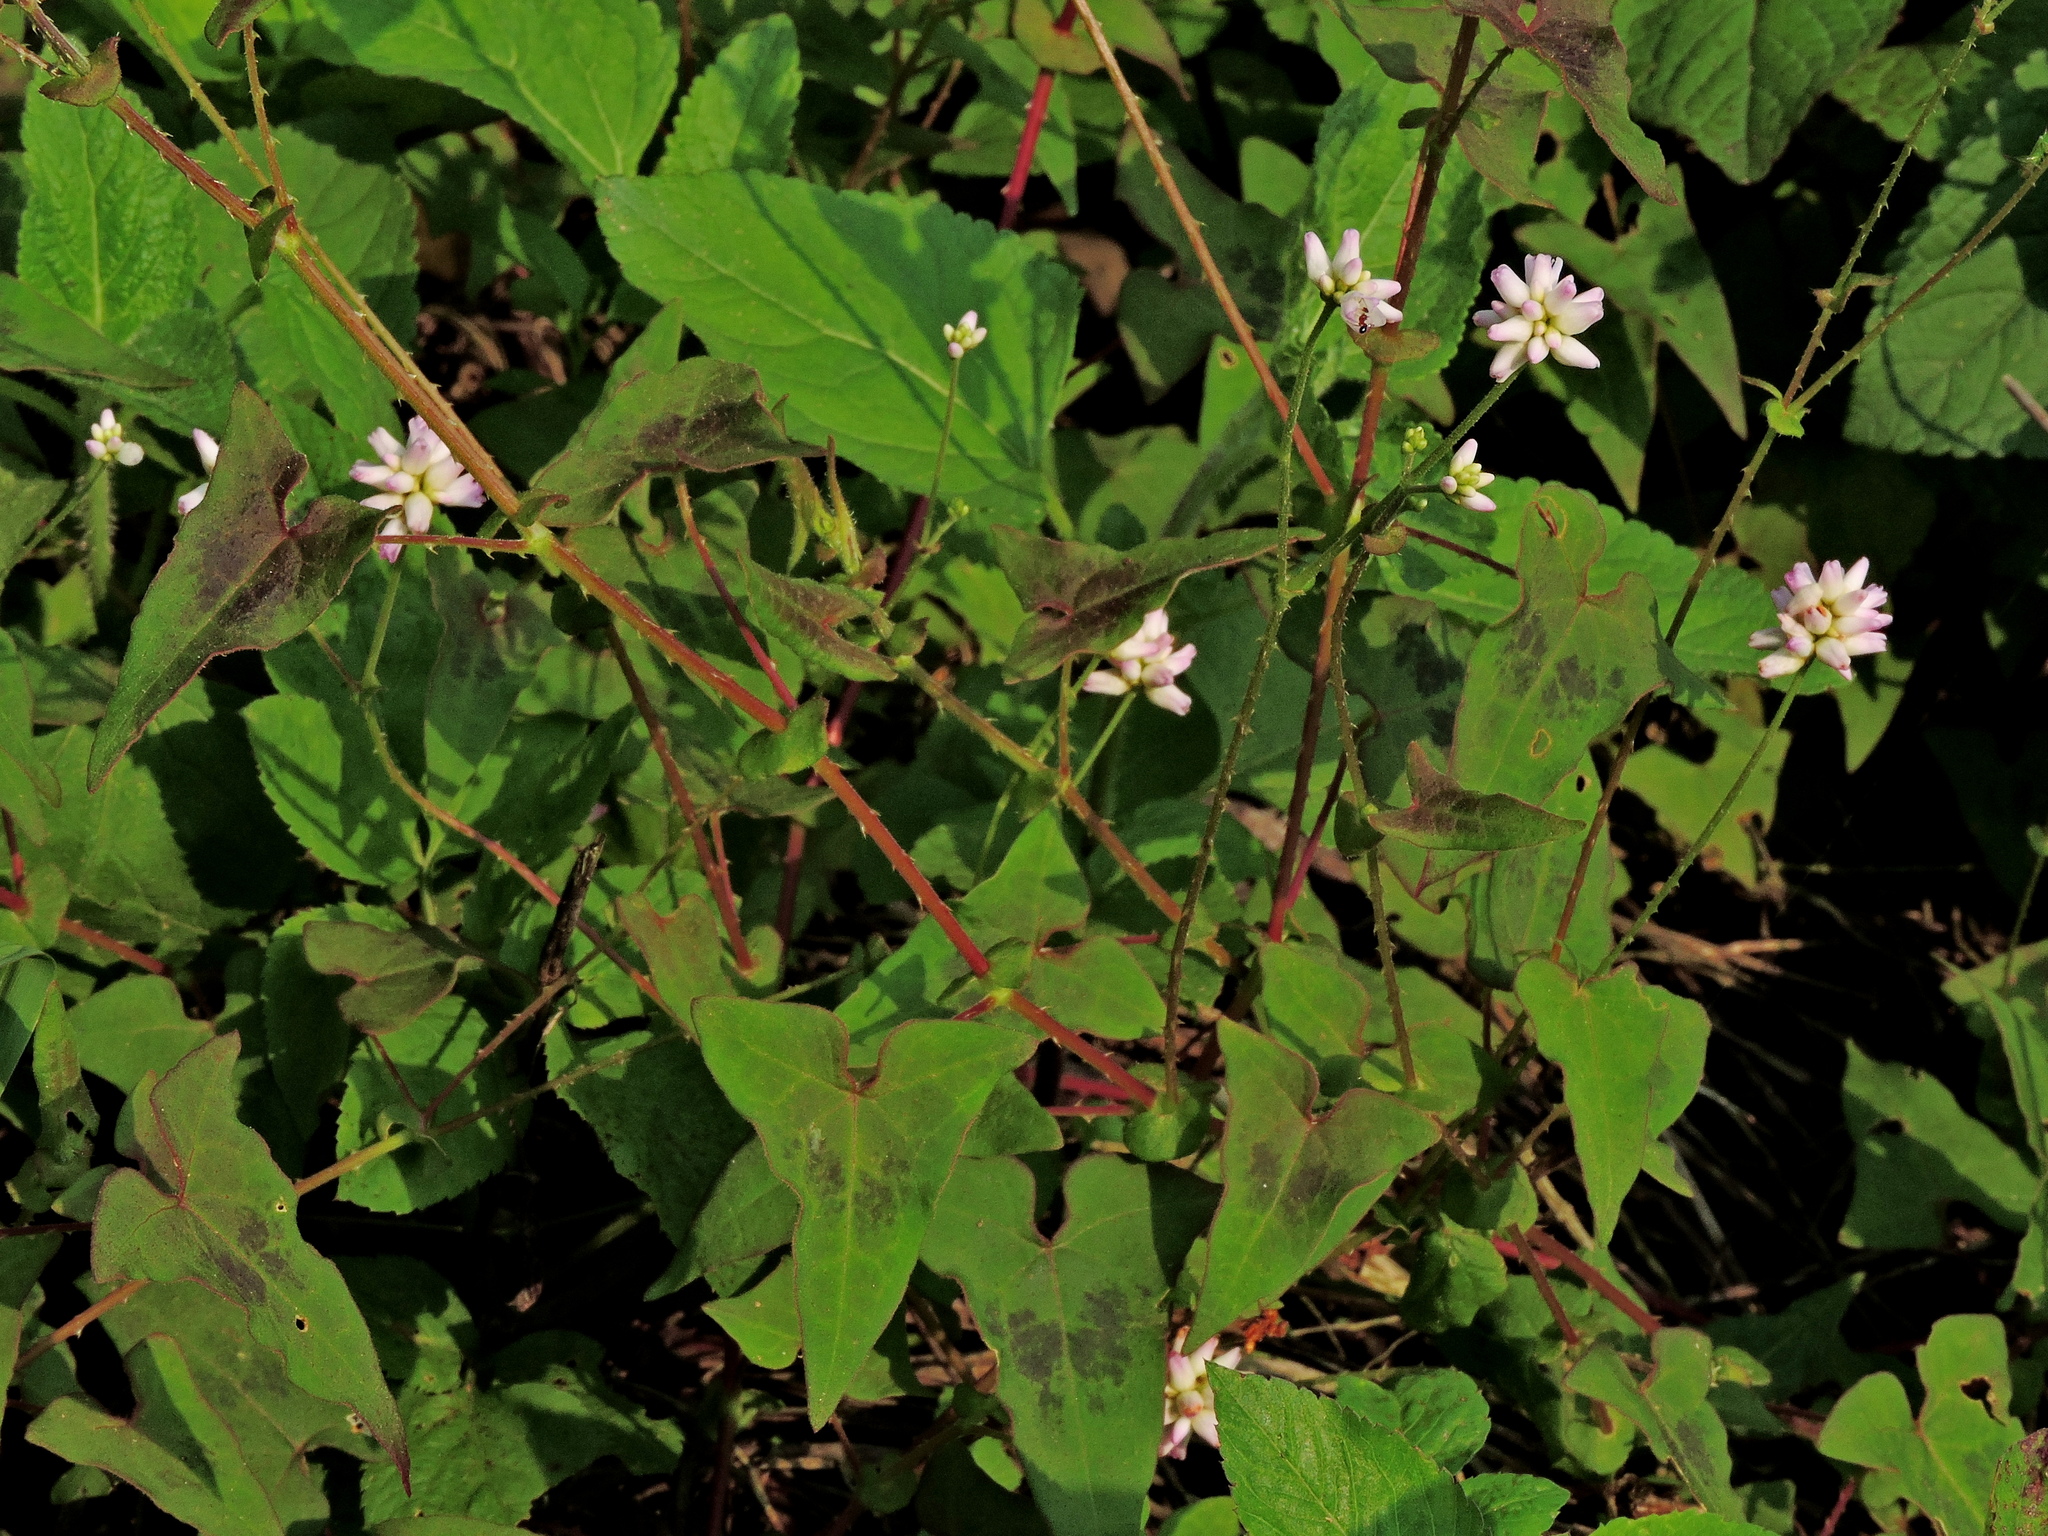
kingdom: Plantae
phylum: Tracheophyta
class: Magnoliopsida
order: Caryophyllales
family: Polygonaceae
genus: Persicaria
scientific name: Persicaria senticosa
